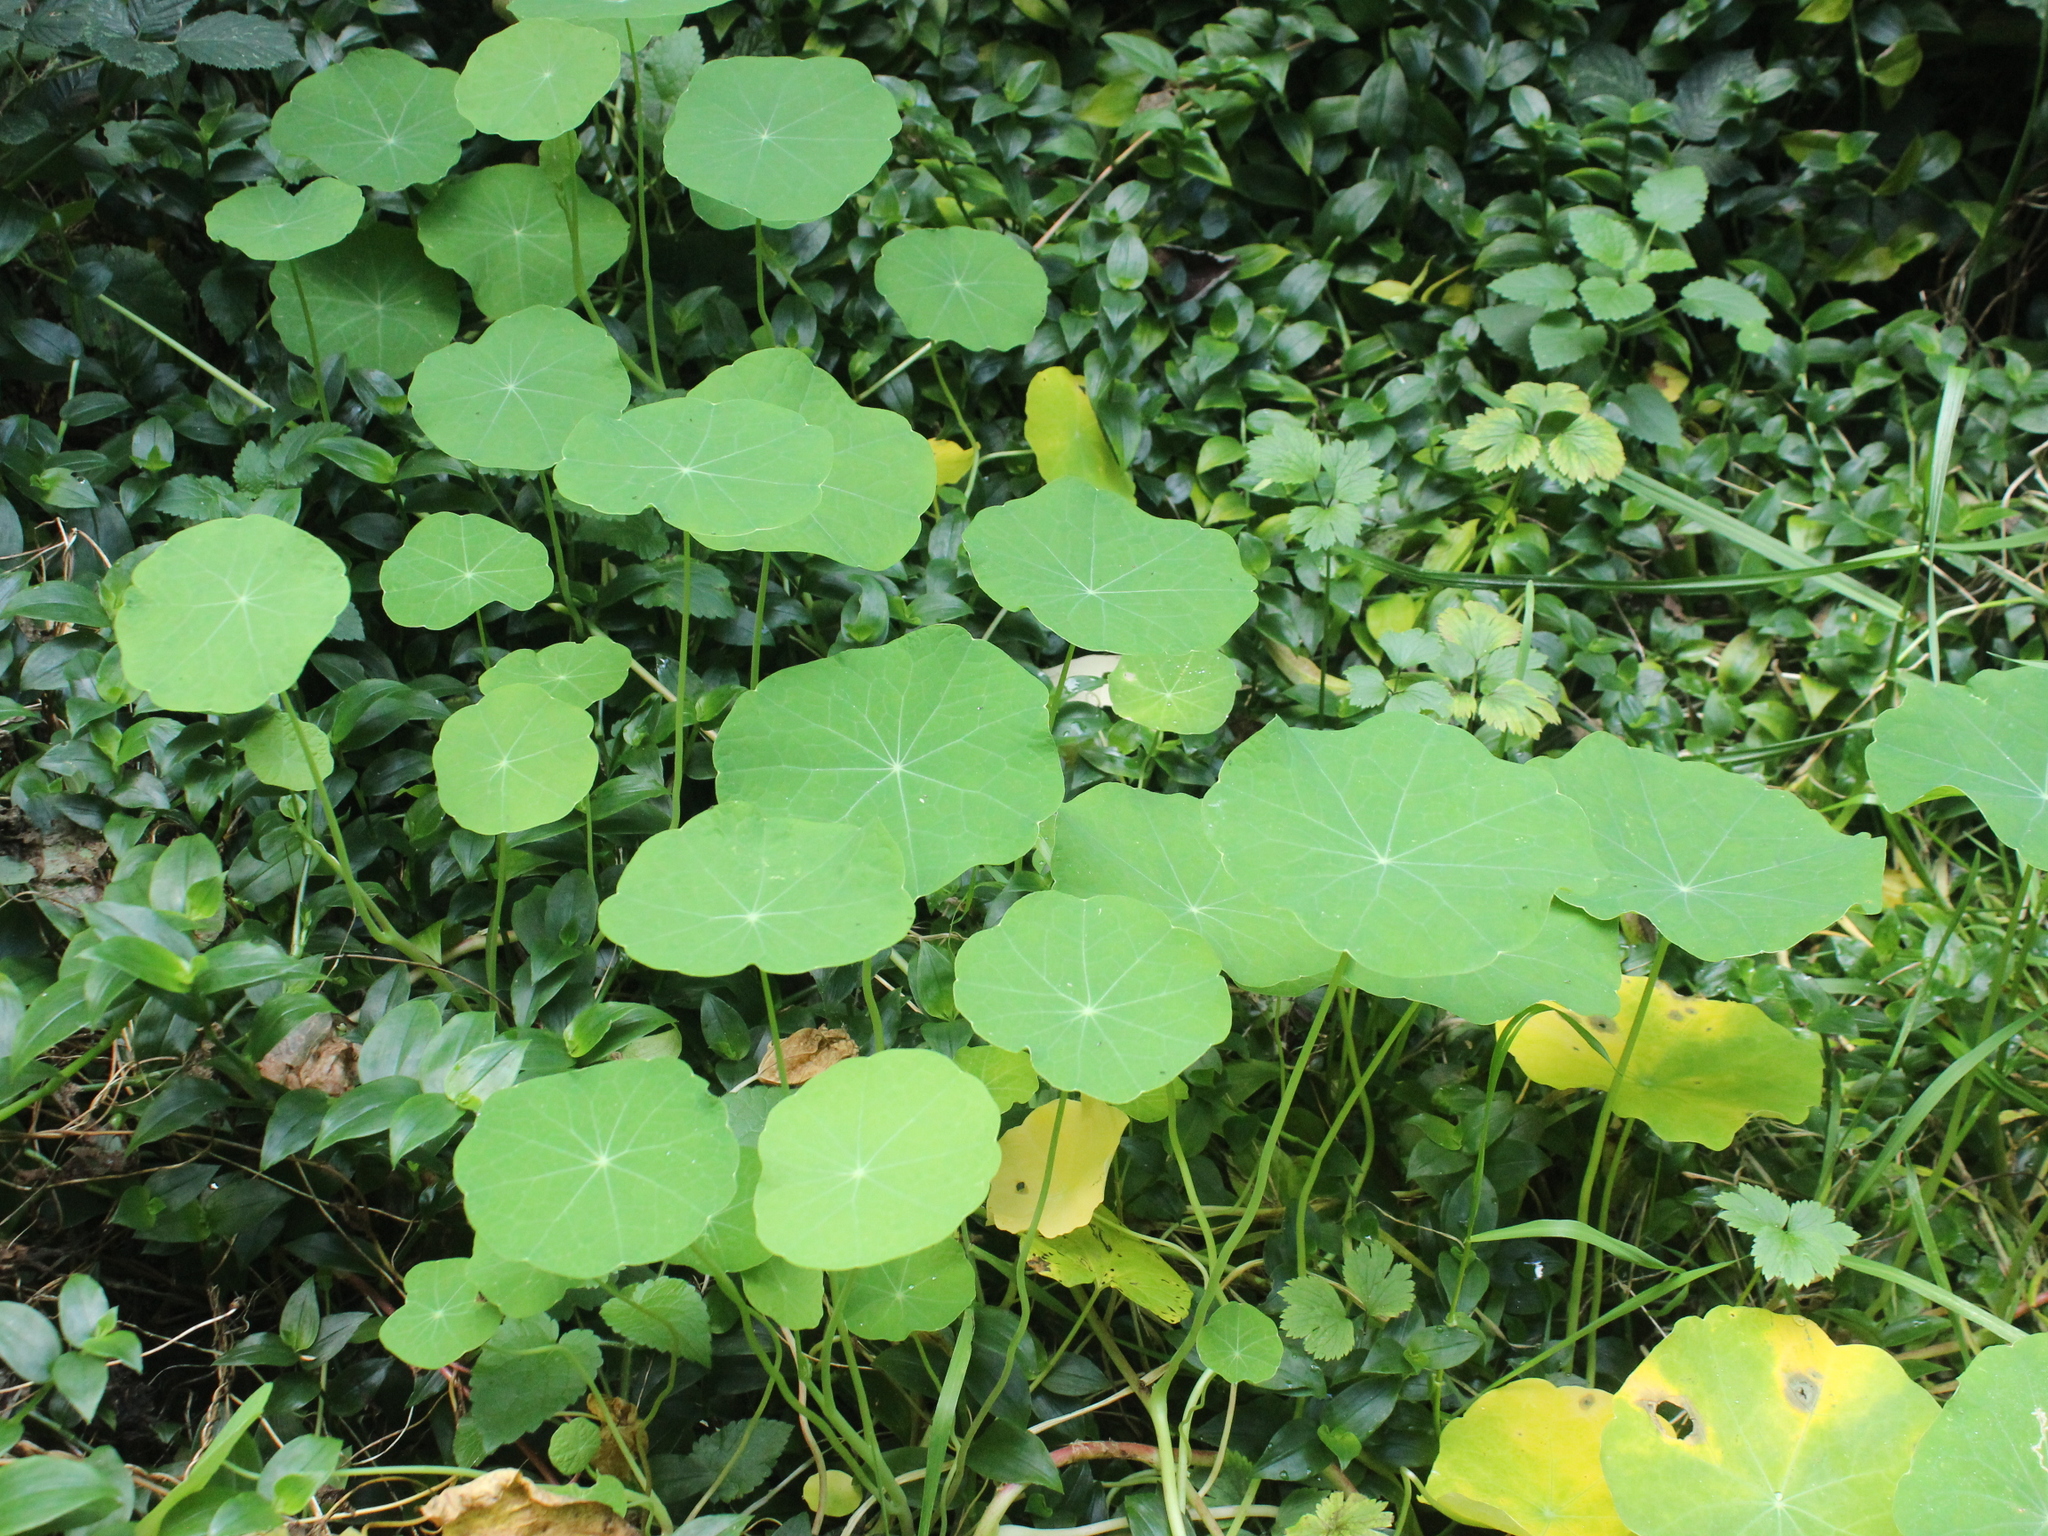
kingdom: Plantae
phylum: Tracheophyta
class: Magnoliopsida
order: Brassicales
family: Tropaeolaceae
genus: Tropaeolum
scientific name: Tropaeolum majus
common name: Nasturtium
